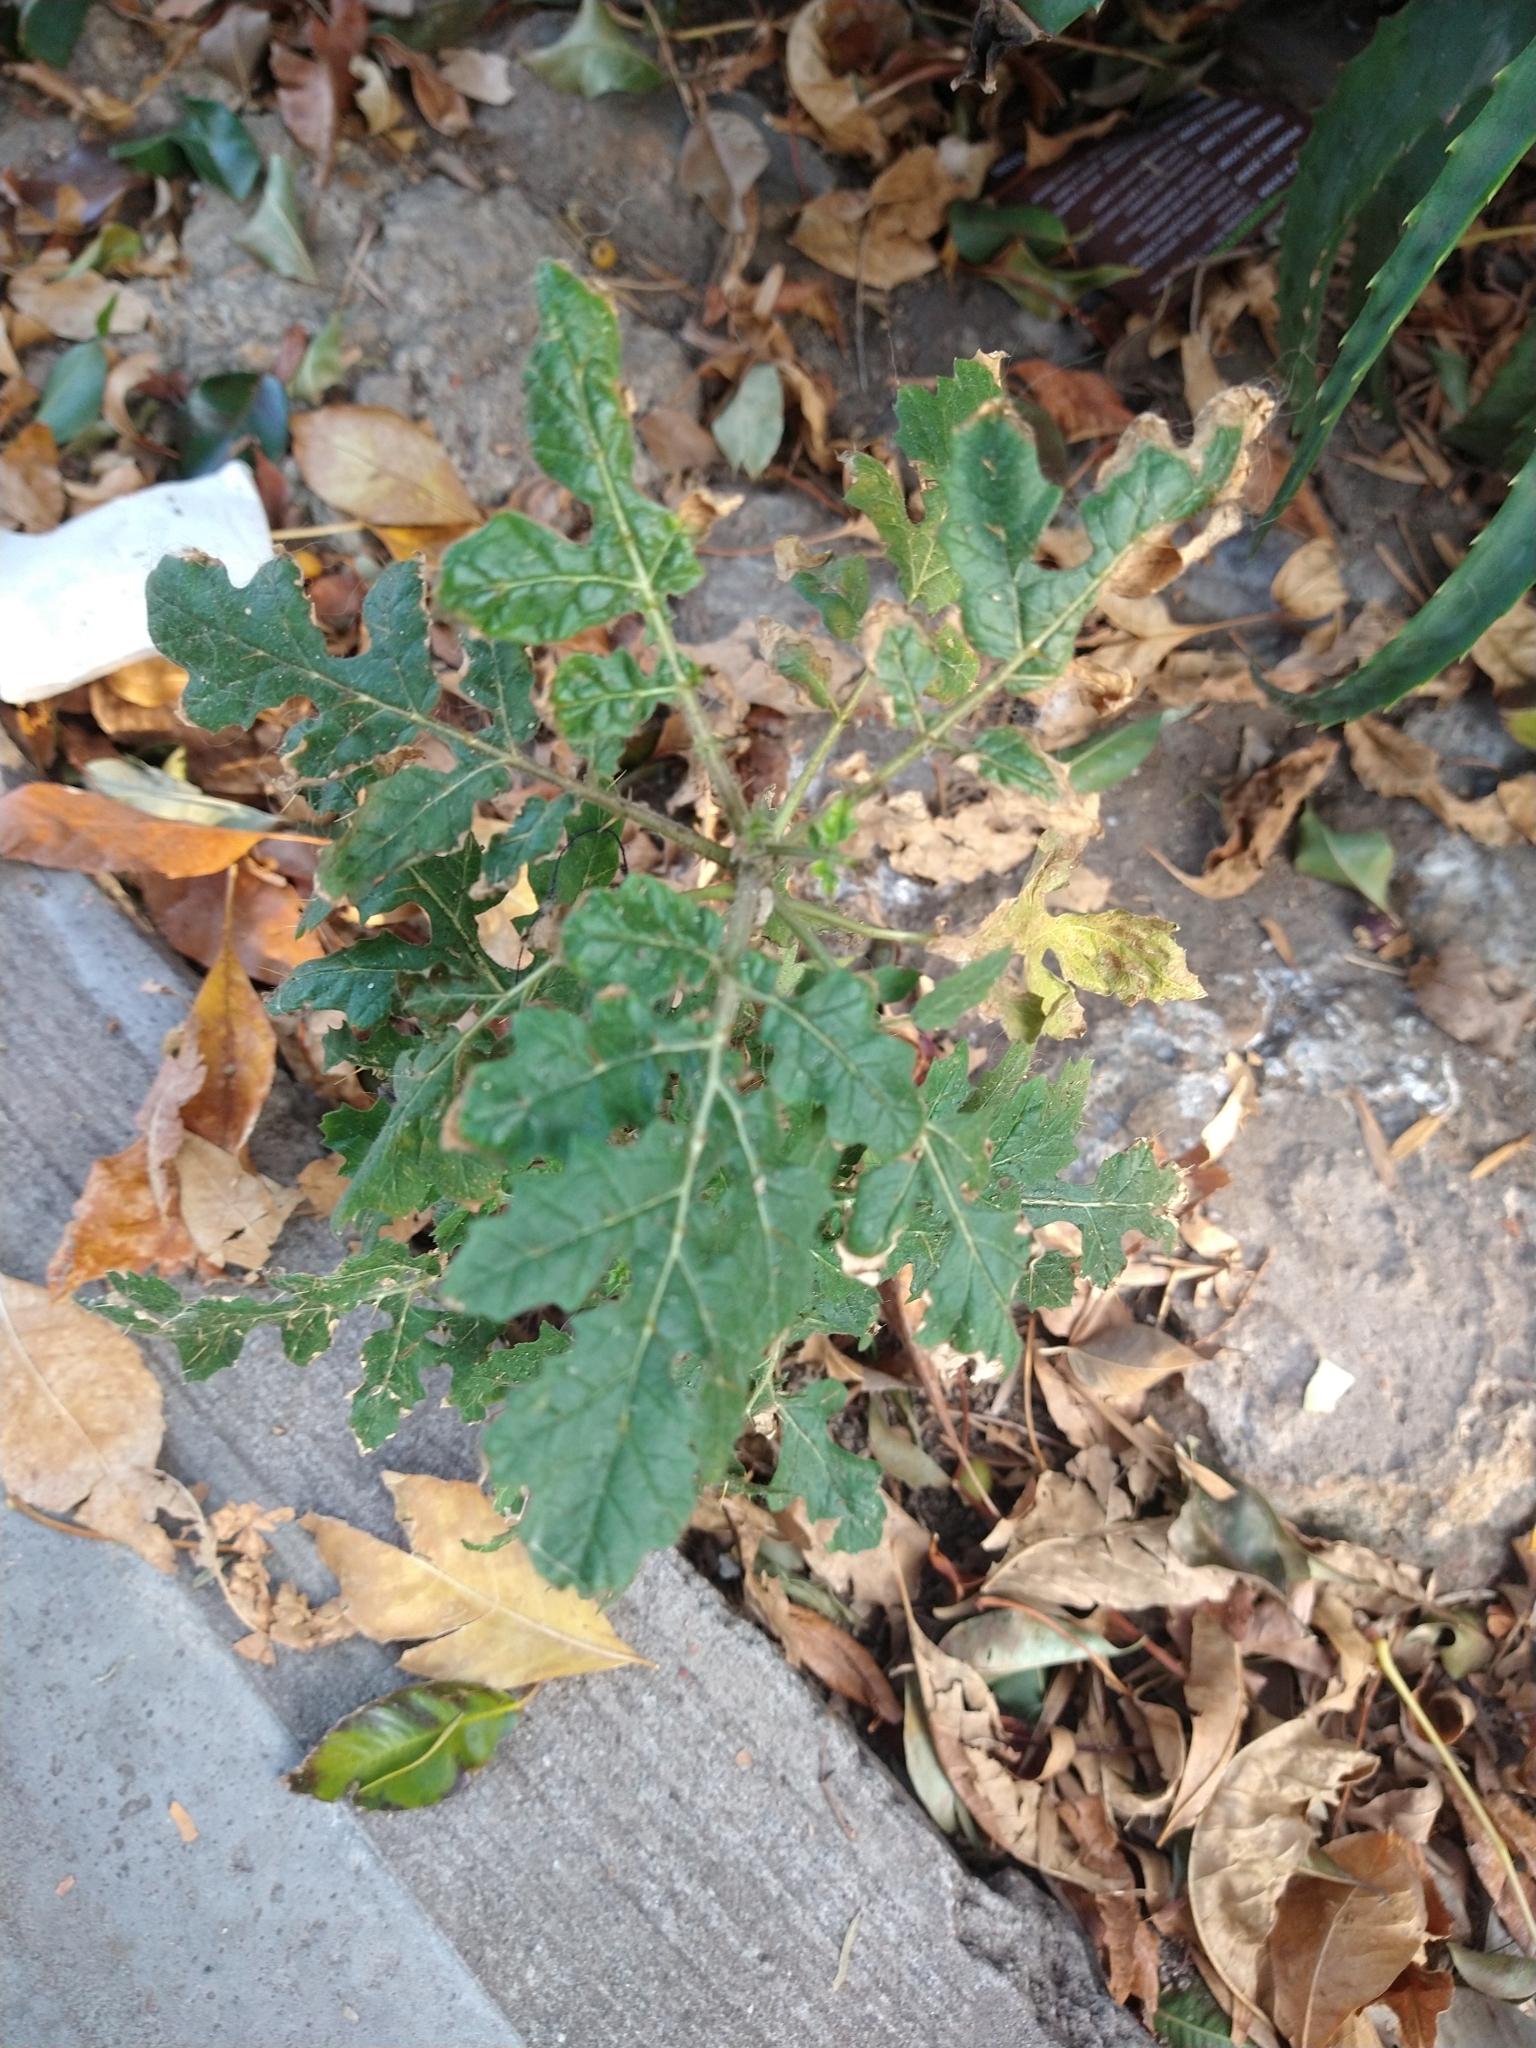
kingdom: Plantae
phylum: Tracheophyta
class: Magnoliopsida
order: Solanales
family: Solanaceae
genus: Solanum
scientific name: Solanum sisymbriifolium
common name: Red buffalo-bur
